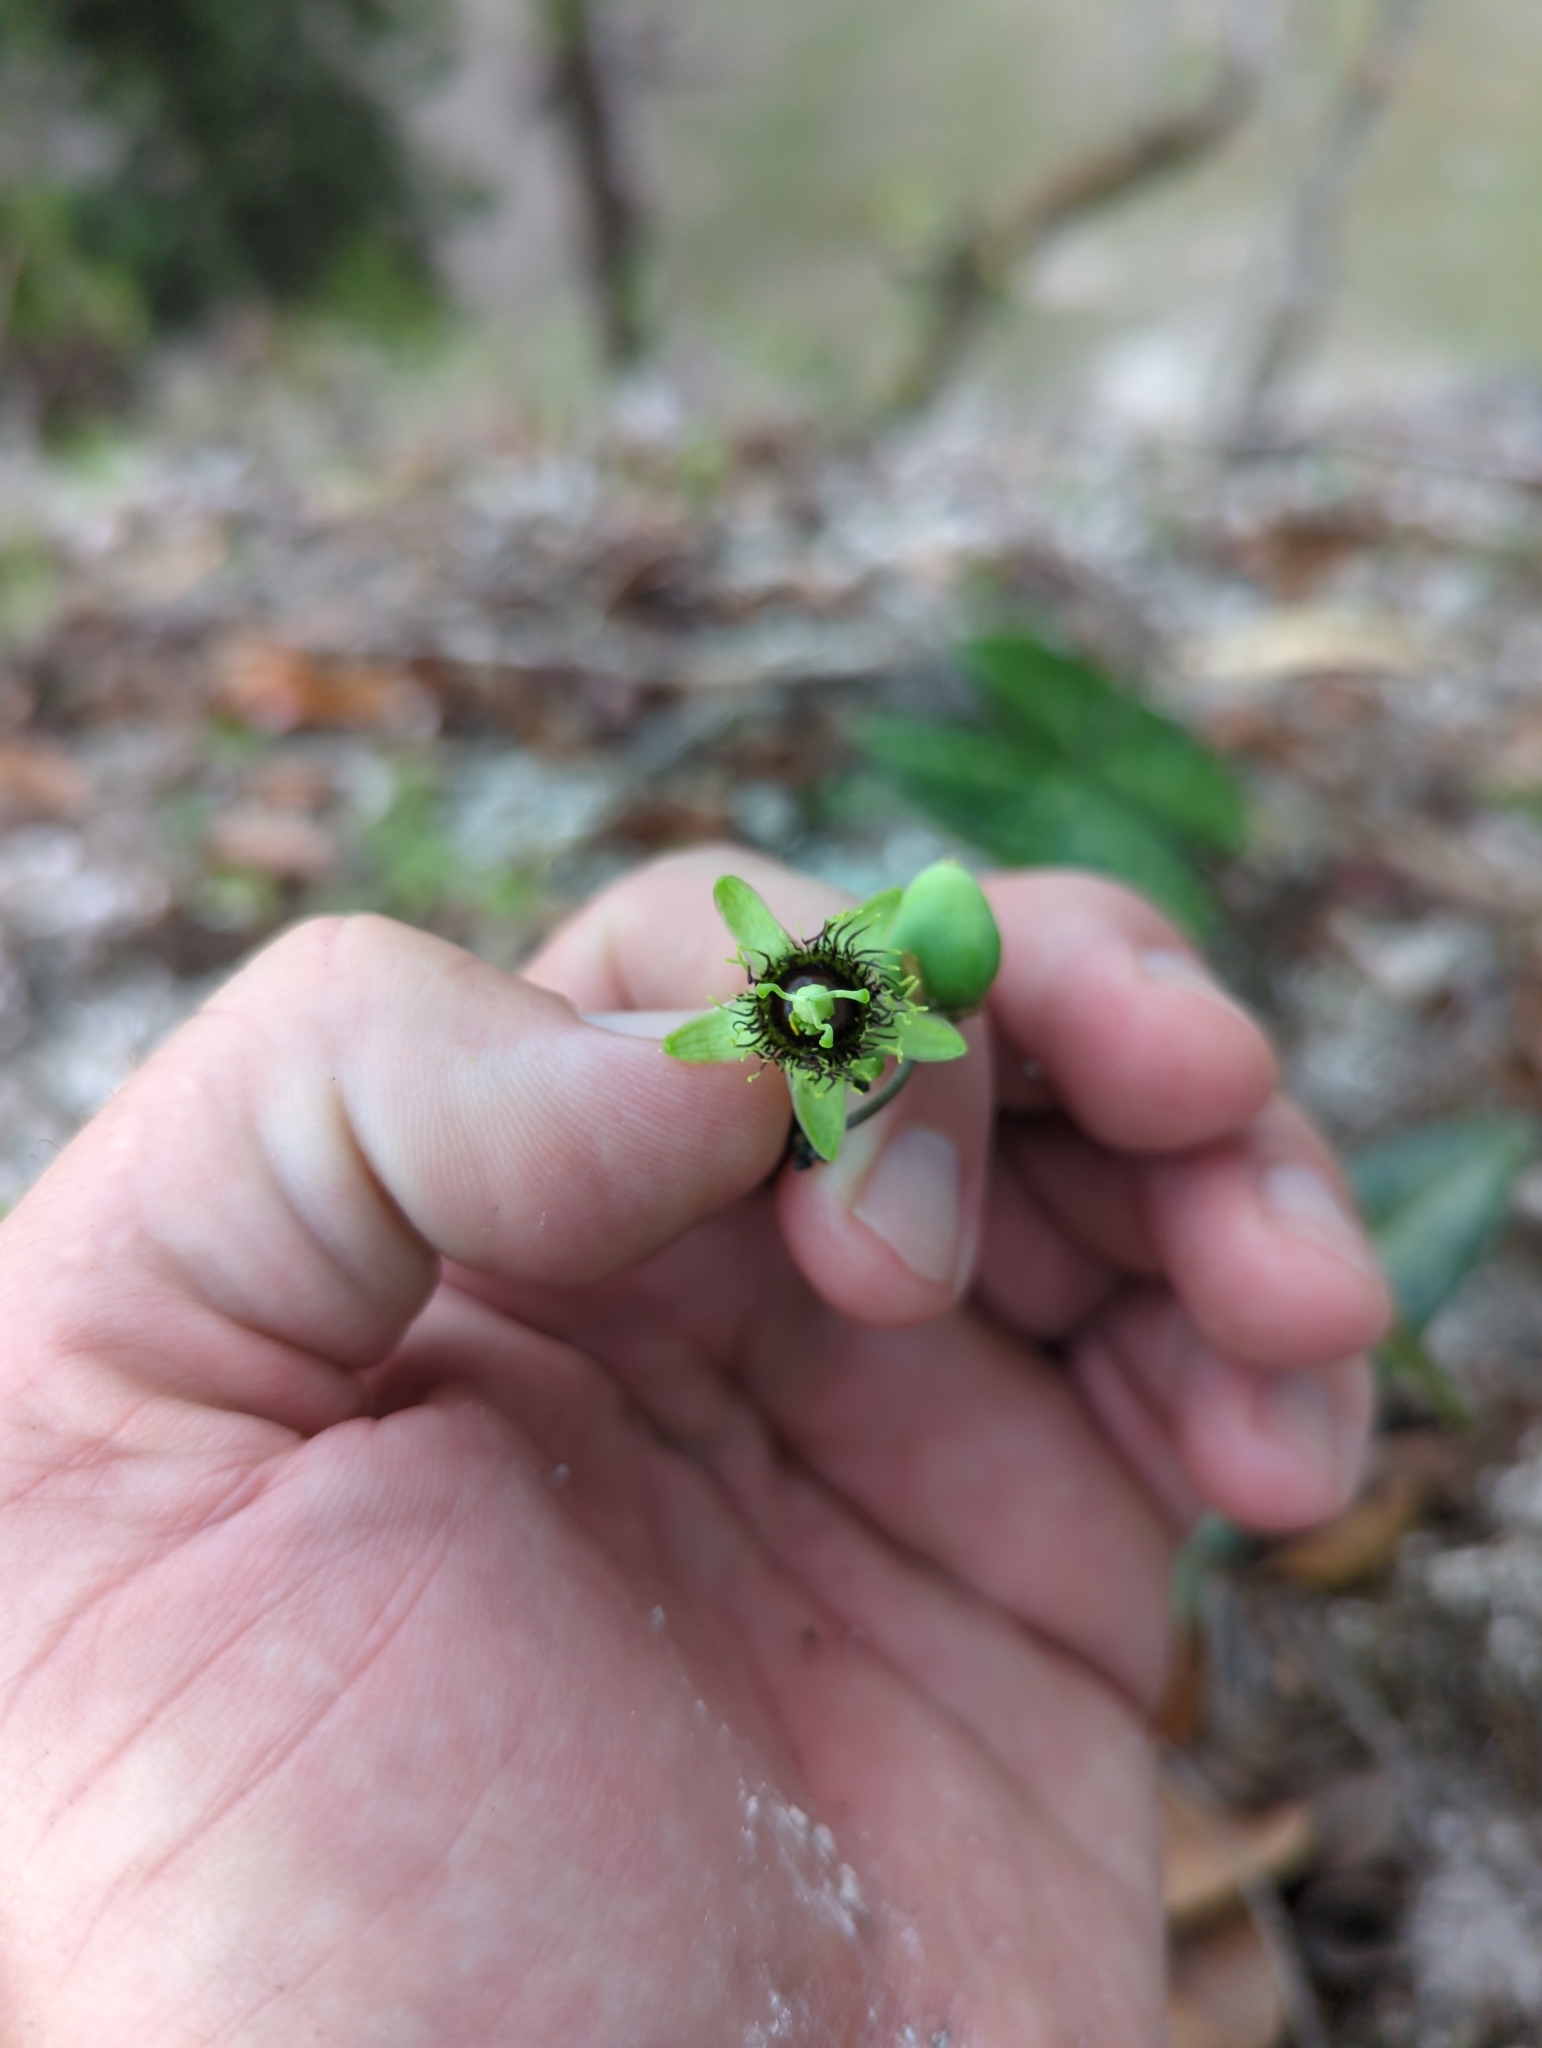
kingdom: Plantae
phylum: Tracheophyta
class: Magnoliopsida
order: Malpighiales
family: Passifloraceae
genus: Passiflora
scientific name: Passiflora xiikzodz
